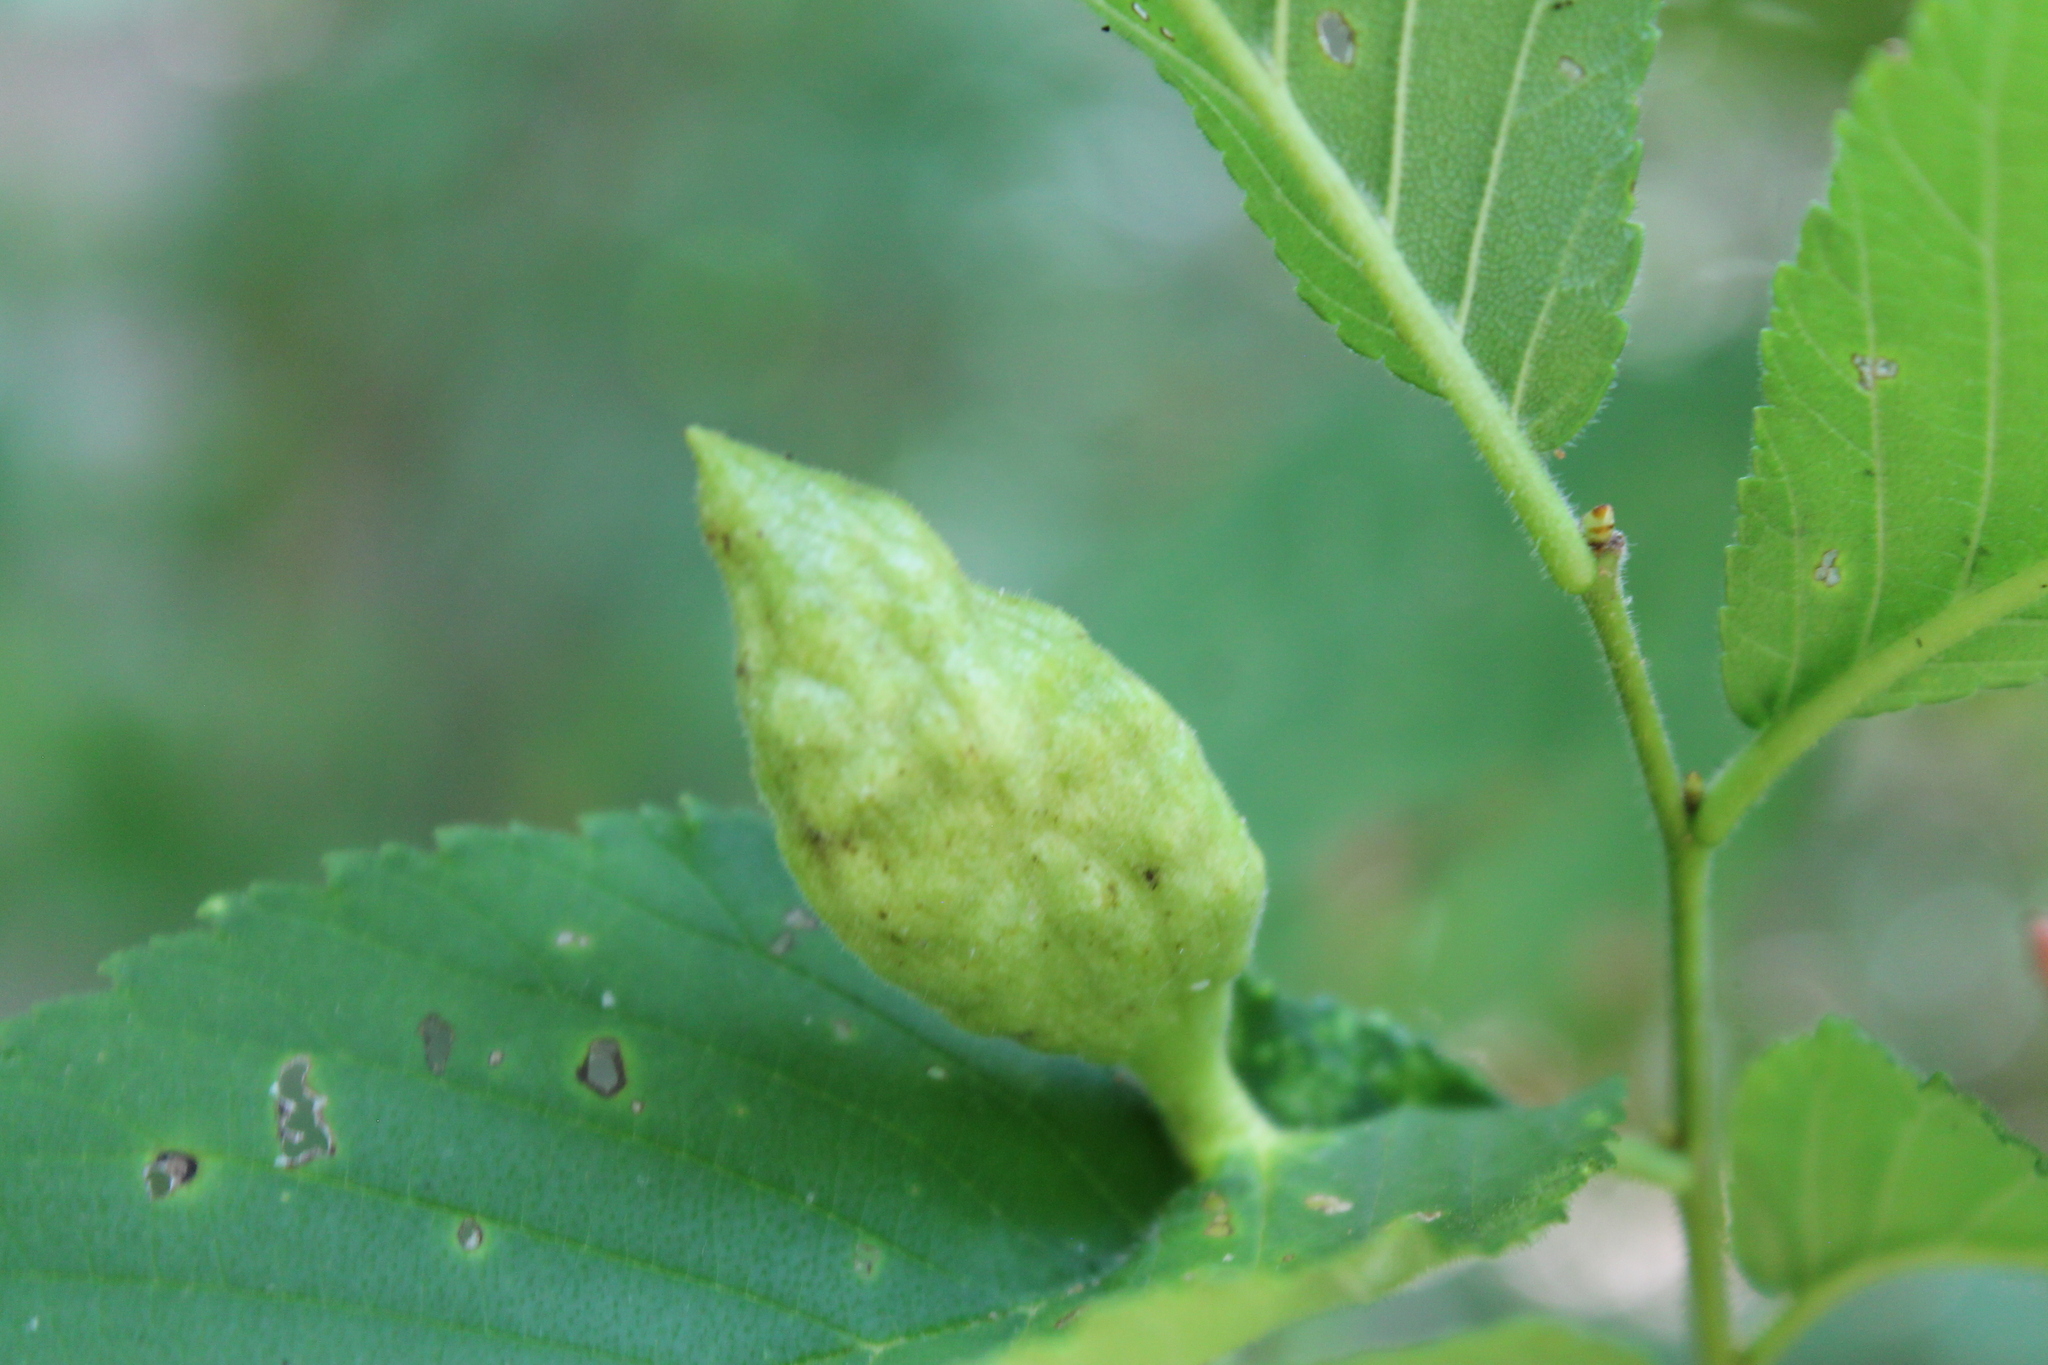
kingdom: Animalia
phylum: Arthropoda
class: Insecta
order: Hemiptera
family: Aphididae
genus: Kaltenbachiella
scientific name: Kaltenbachiella ulmifusa
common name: Elm pouchgall aphid
